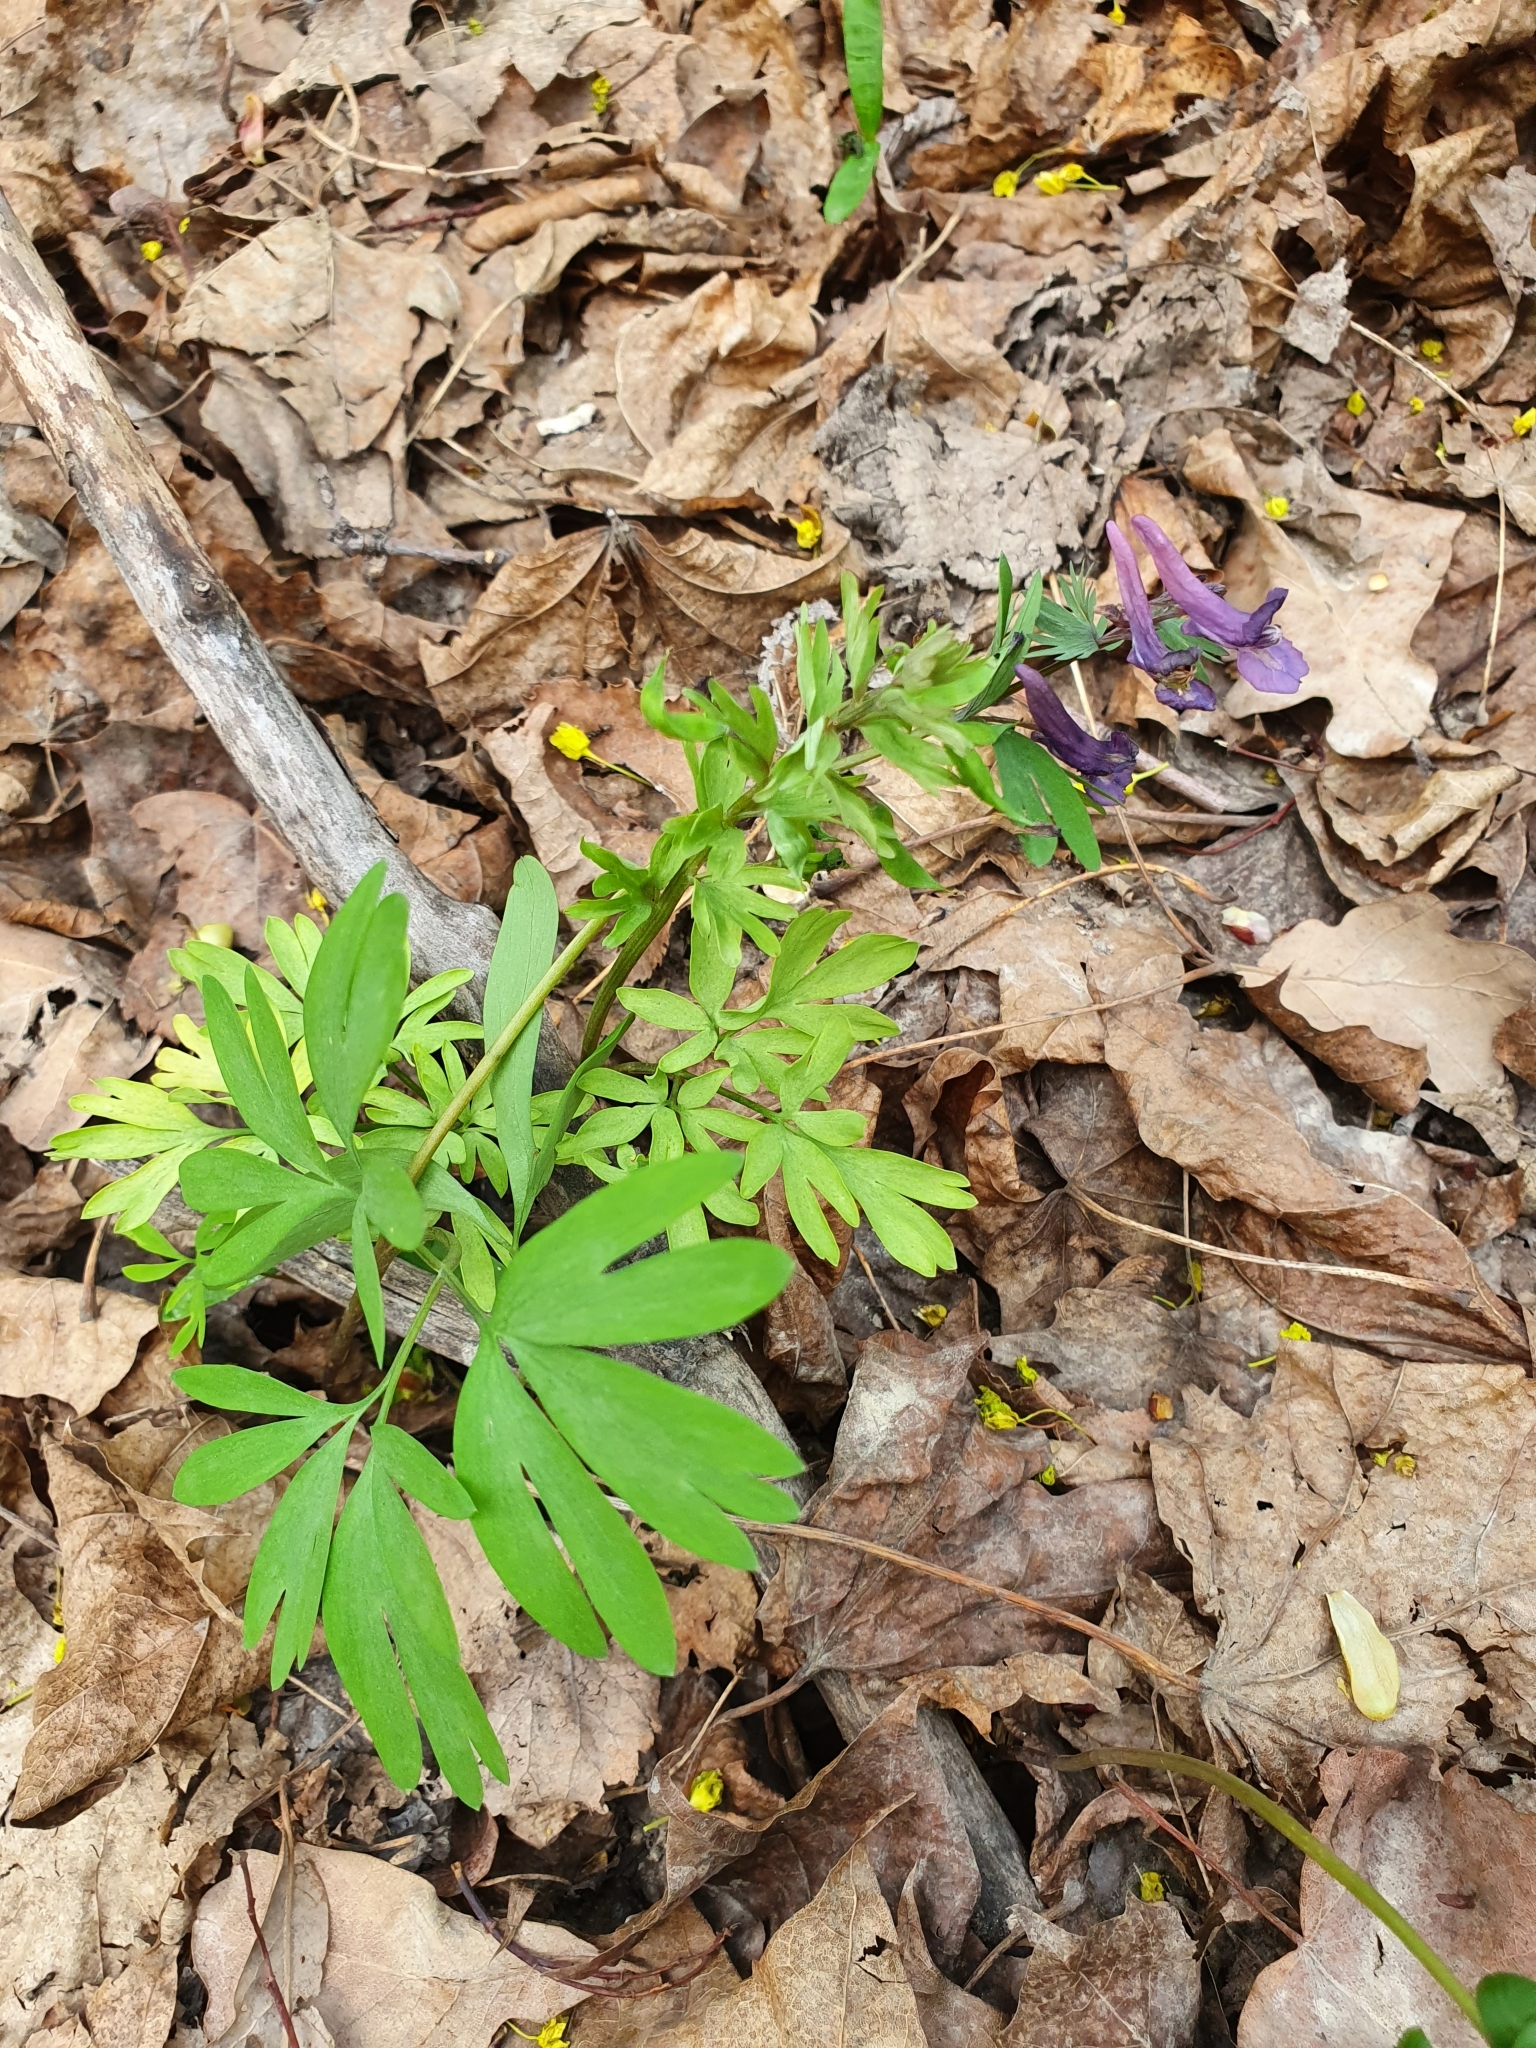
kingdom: Plantae
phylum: Tracheophyta
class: Magnoliopsida
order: Ranunculales
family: Papaveraceae
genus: Corydalis
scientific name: Corydalis solida
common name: Bird-in-a-bush
